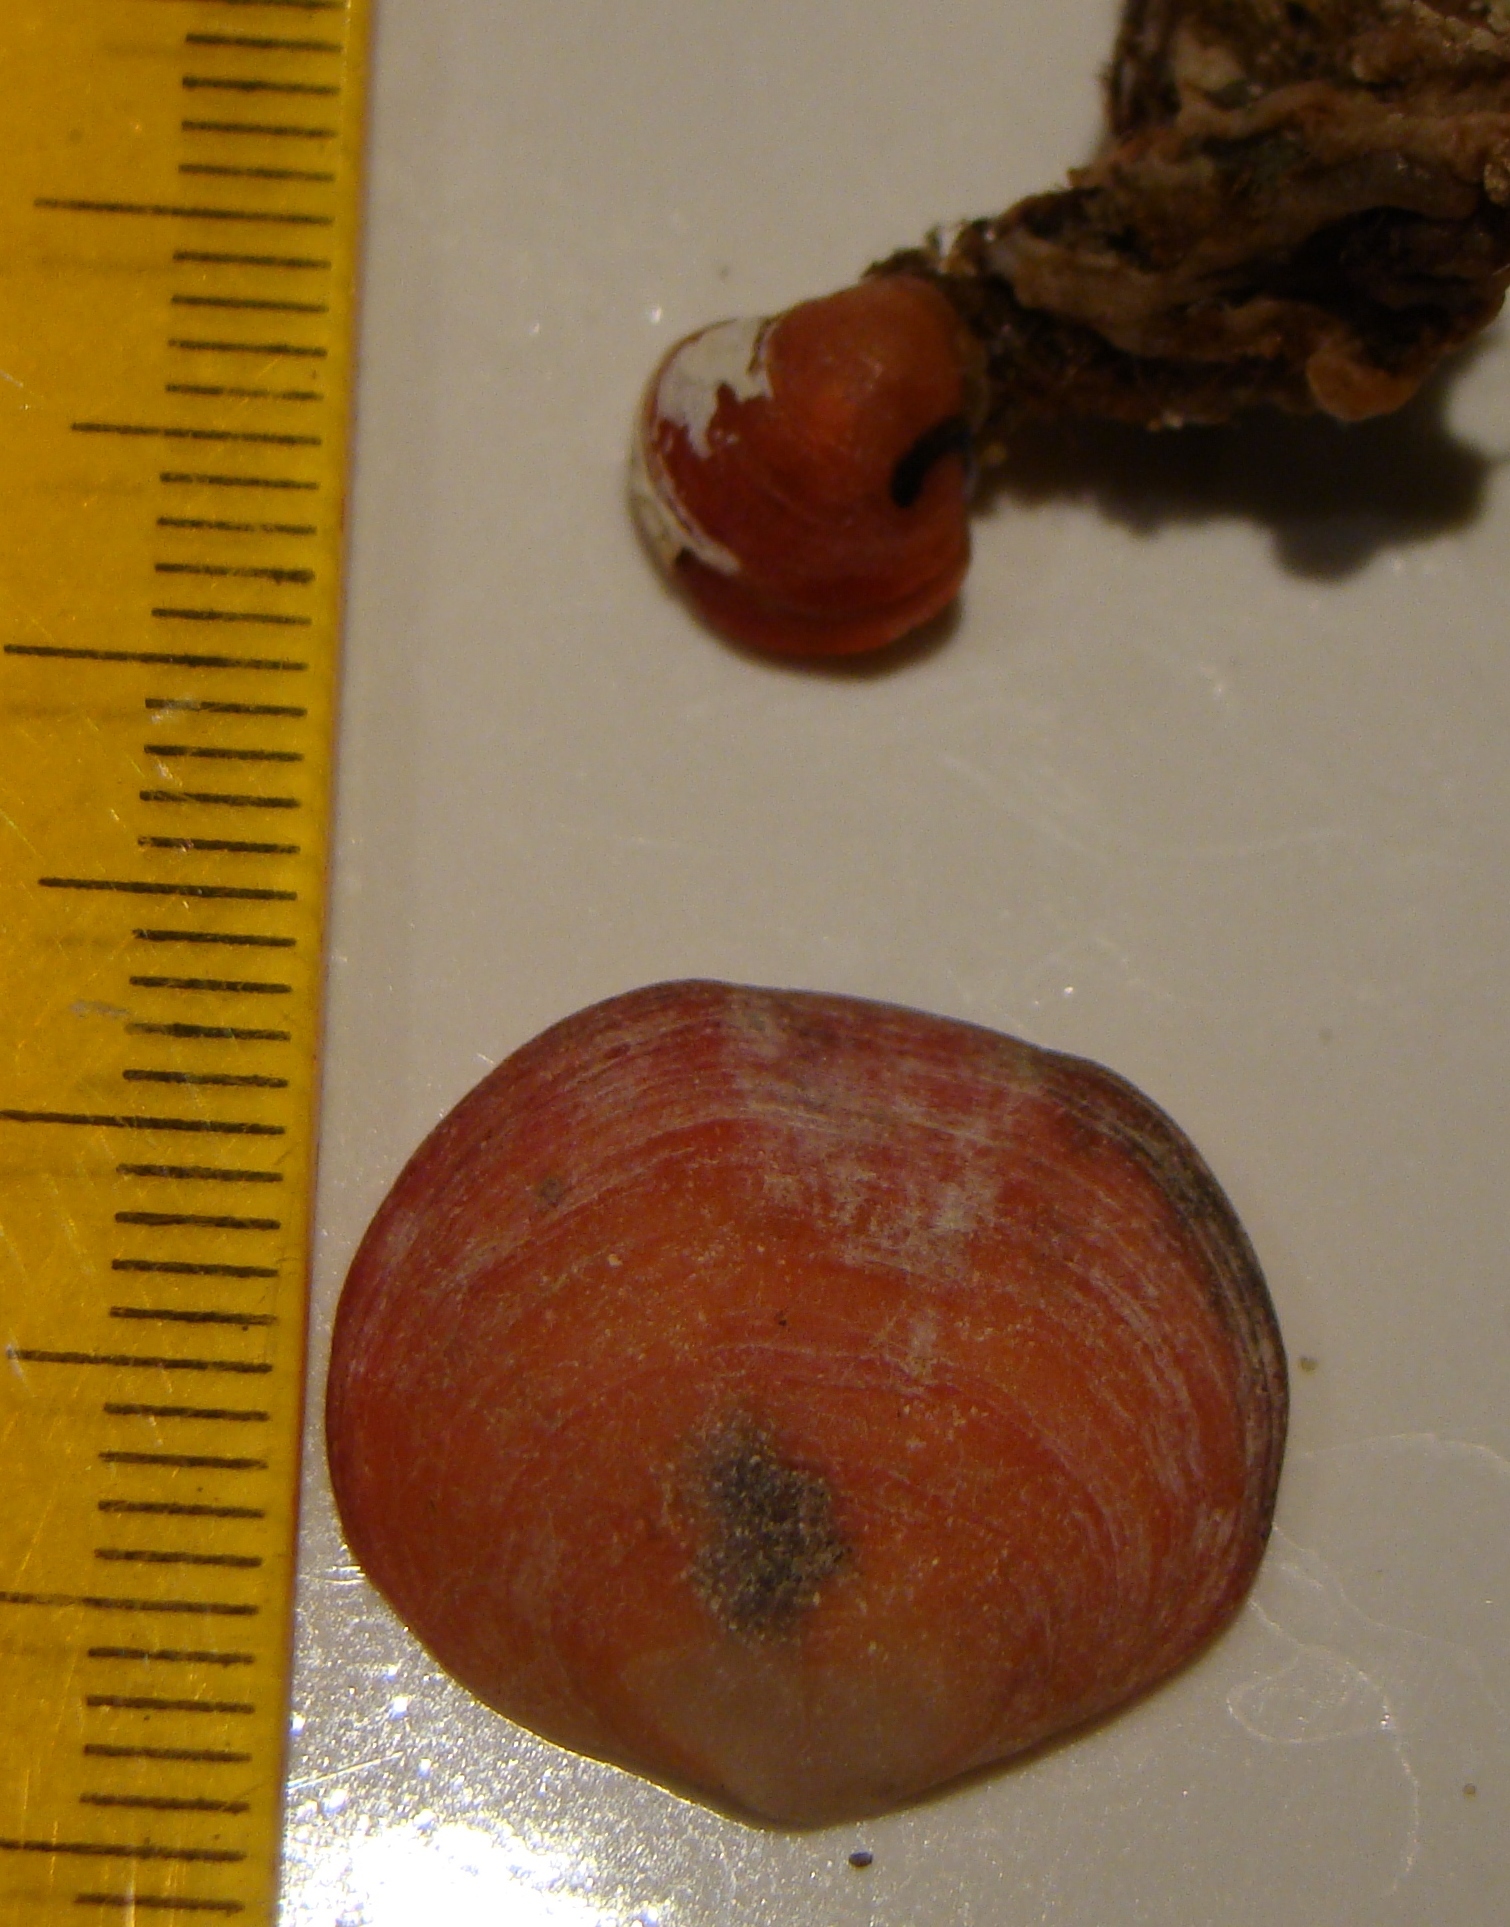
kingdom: Animalia
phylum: Brachiopoda
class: Rhynchonellata
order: Terebratulida
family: Terebratellidae
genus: Calloria
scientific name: Calloria inconspicua
